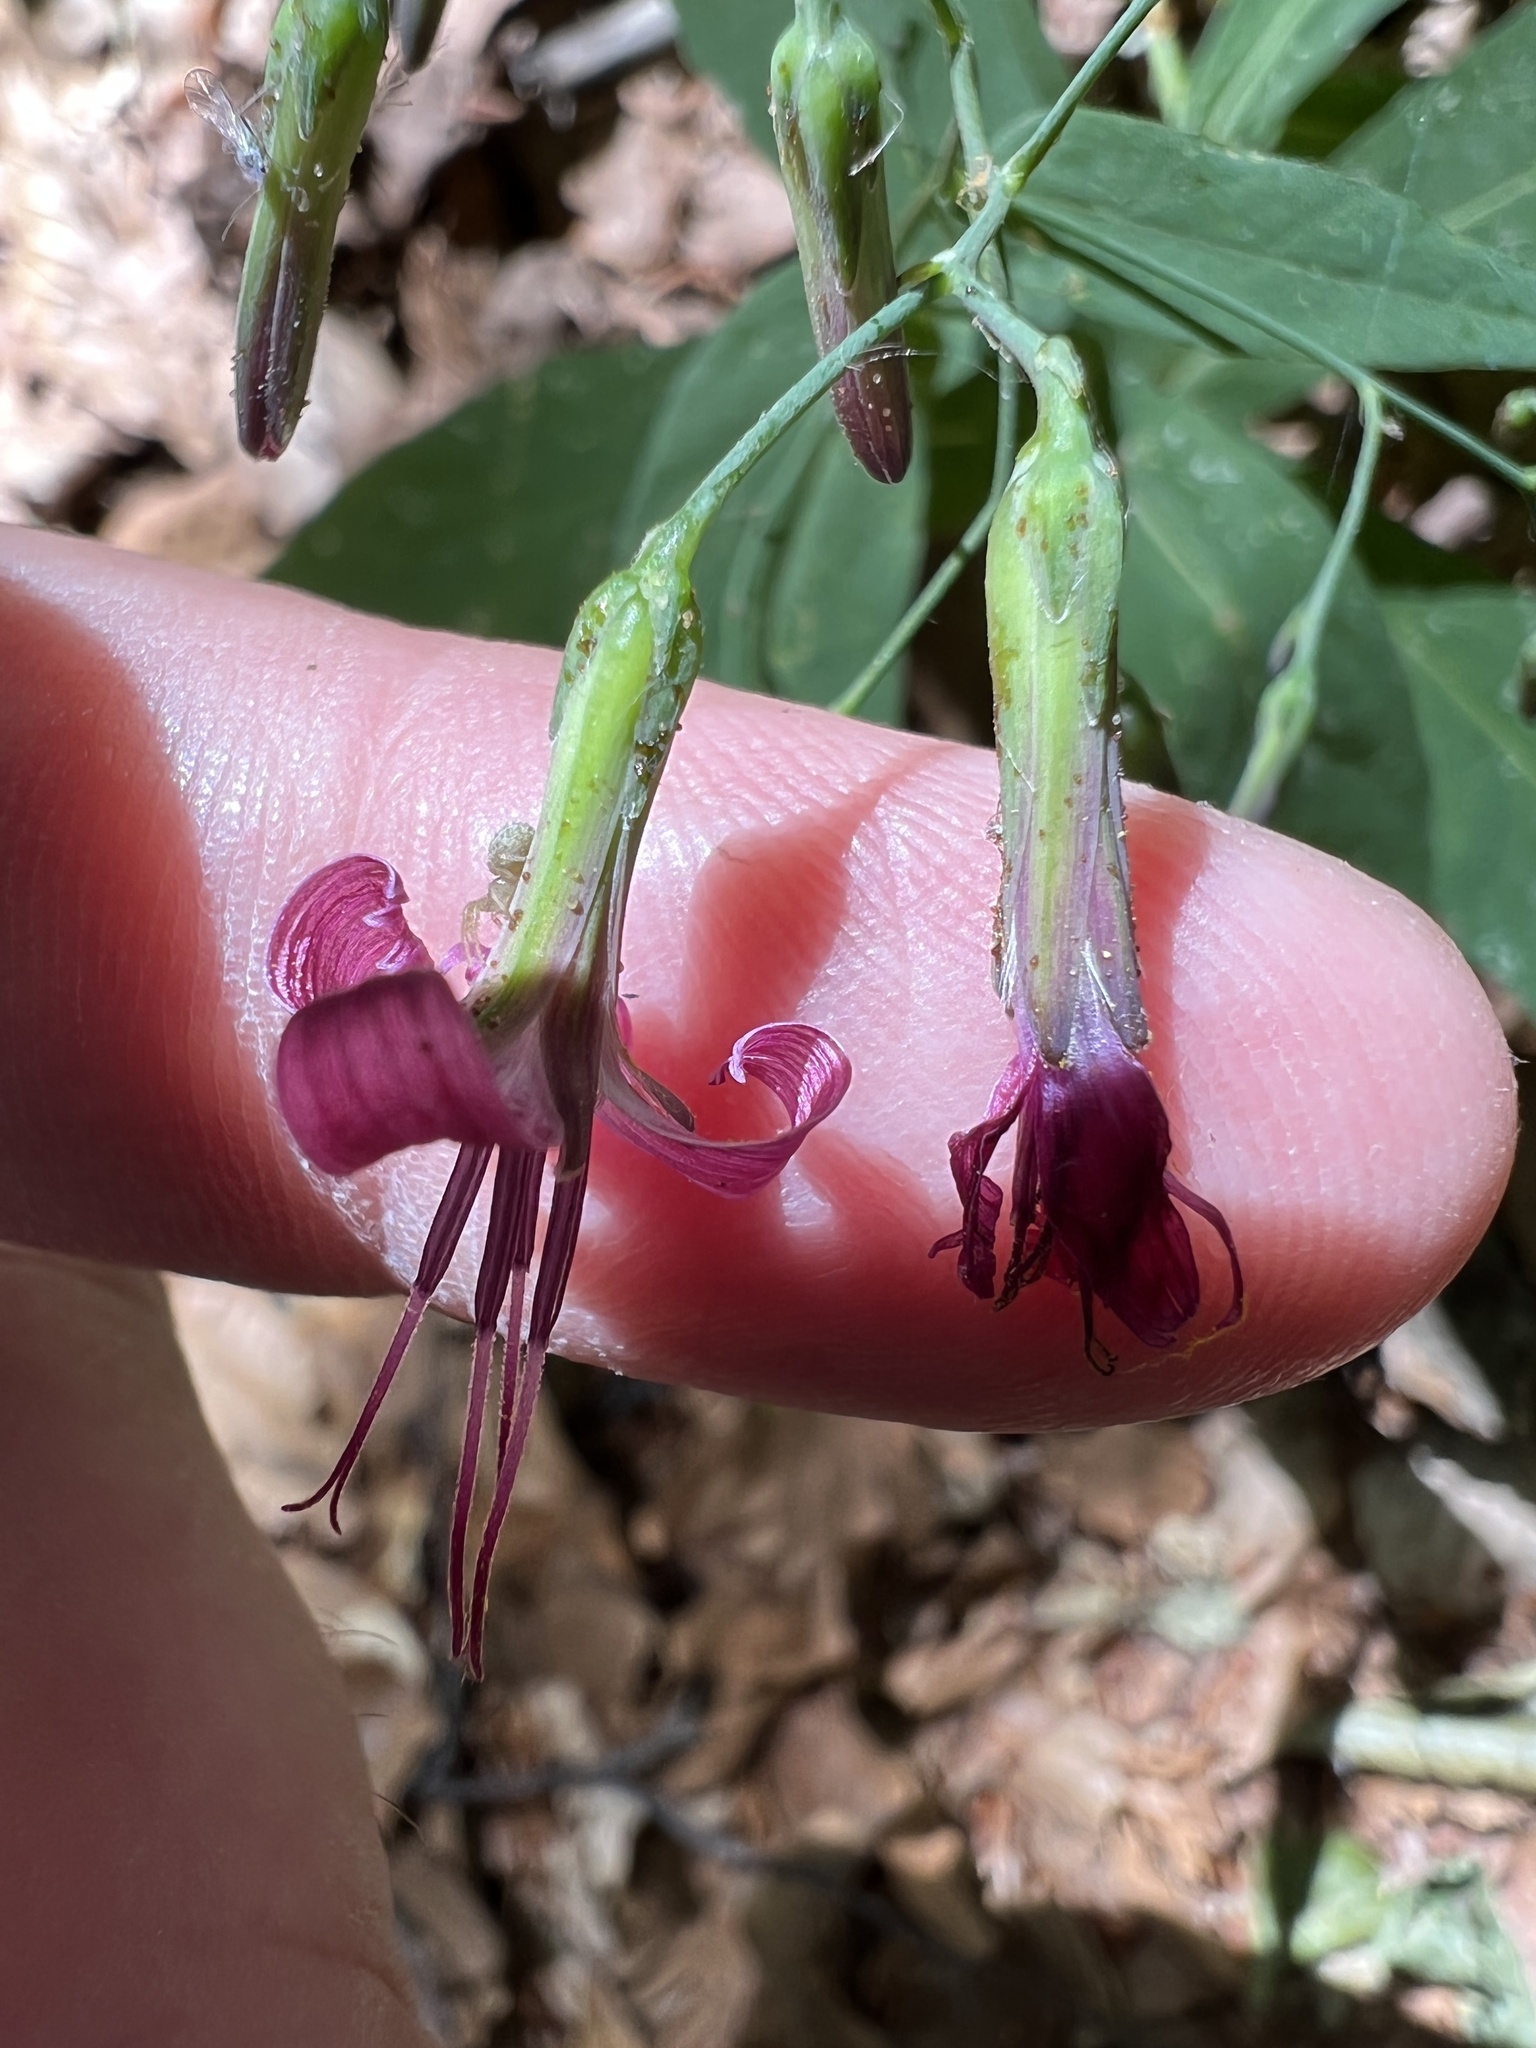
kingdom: Plantae
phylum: Tracheophyta
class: Magnoliopsida
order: Asterales
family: Asteraceae
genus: Prenanthes
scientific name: Prenanthes purpurea
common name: Purple lettuce
